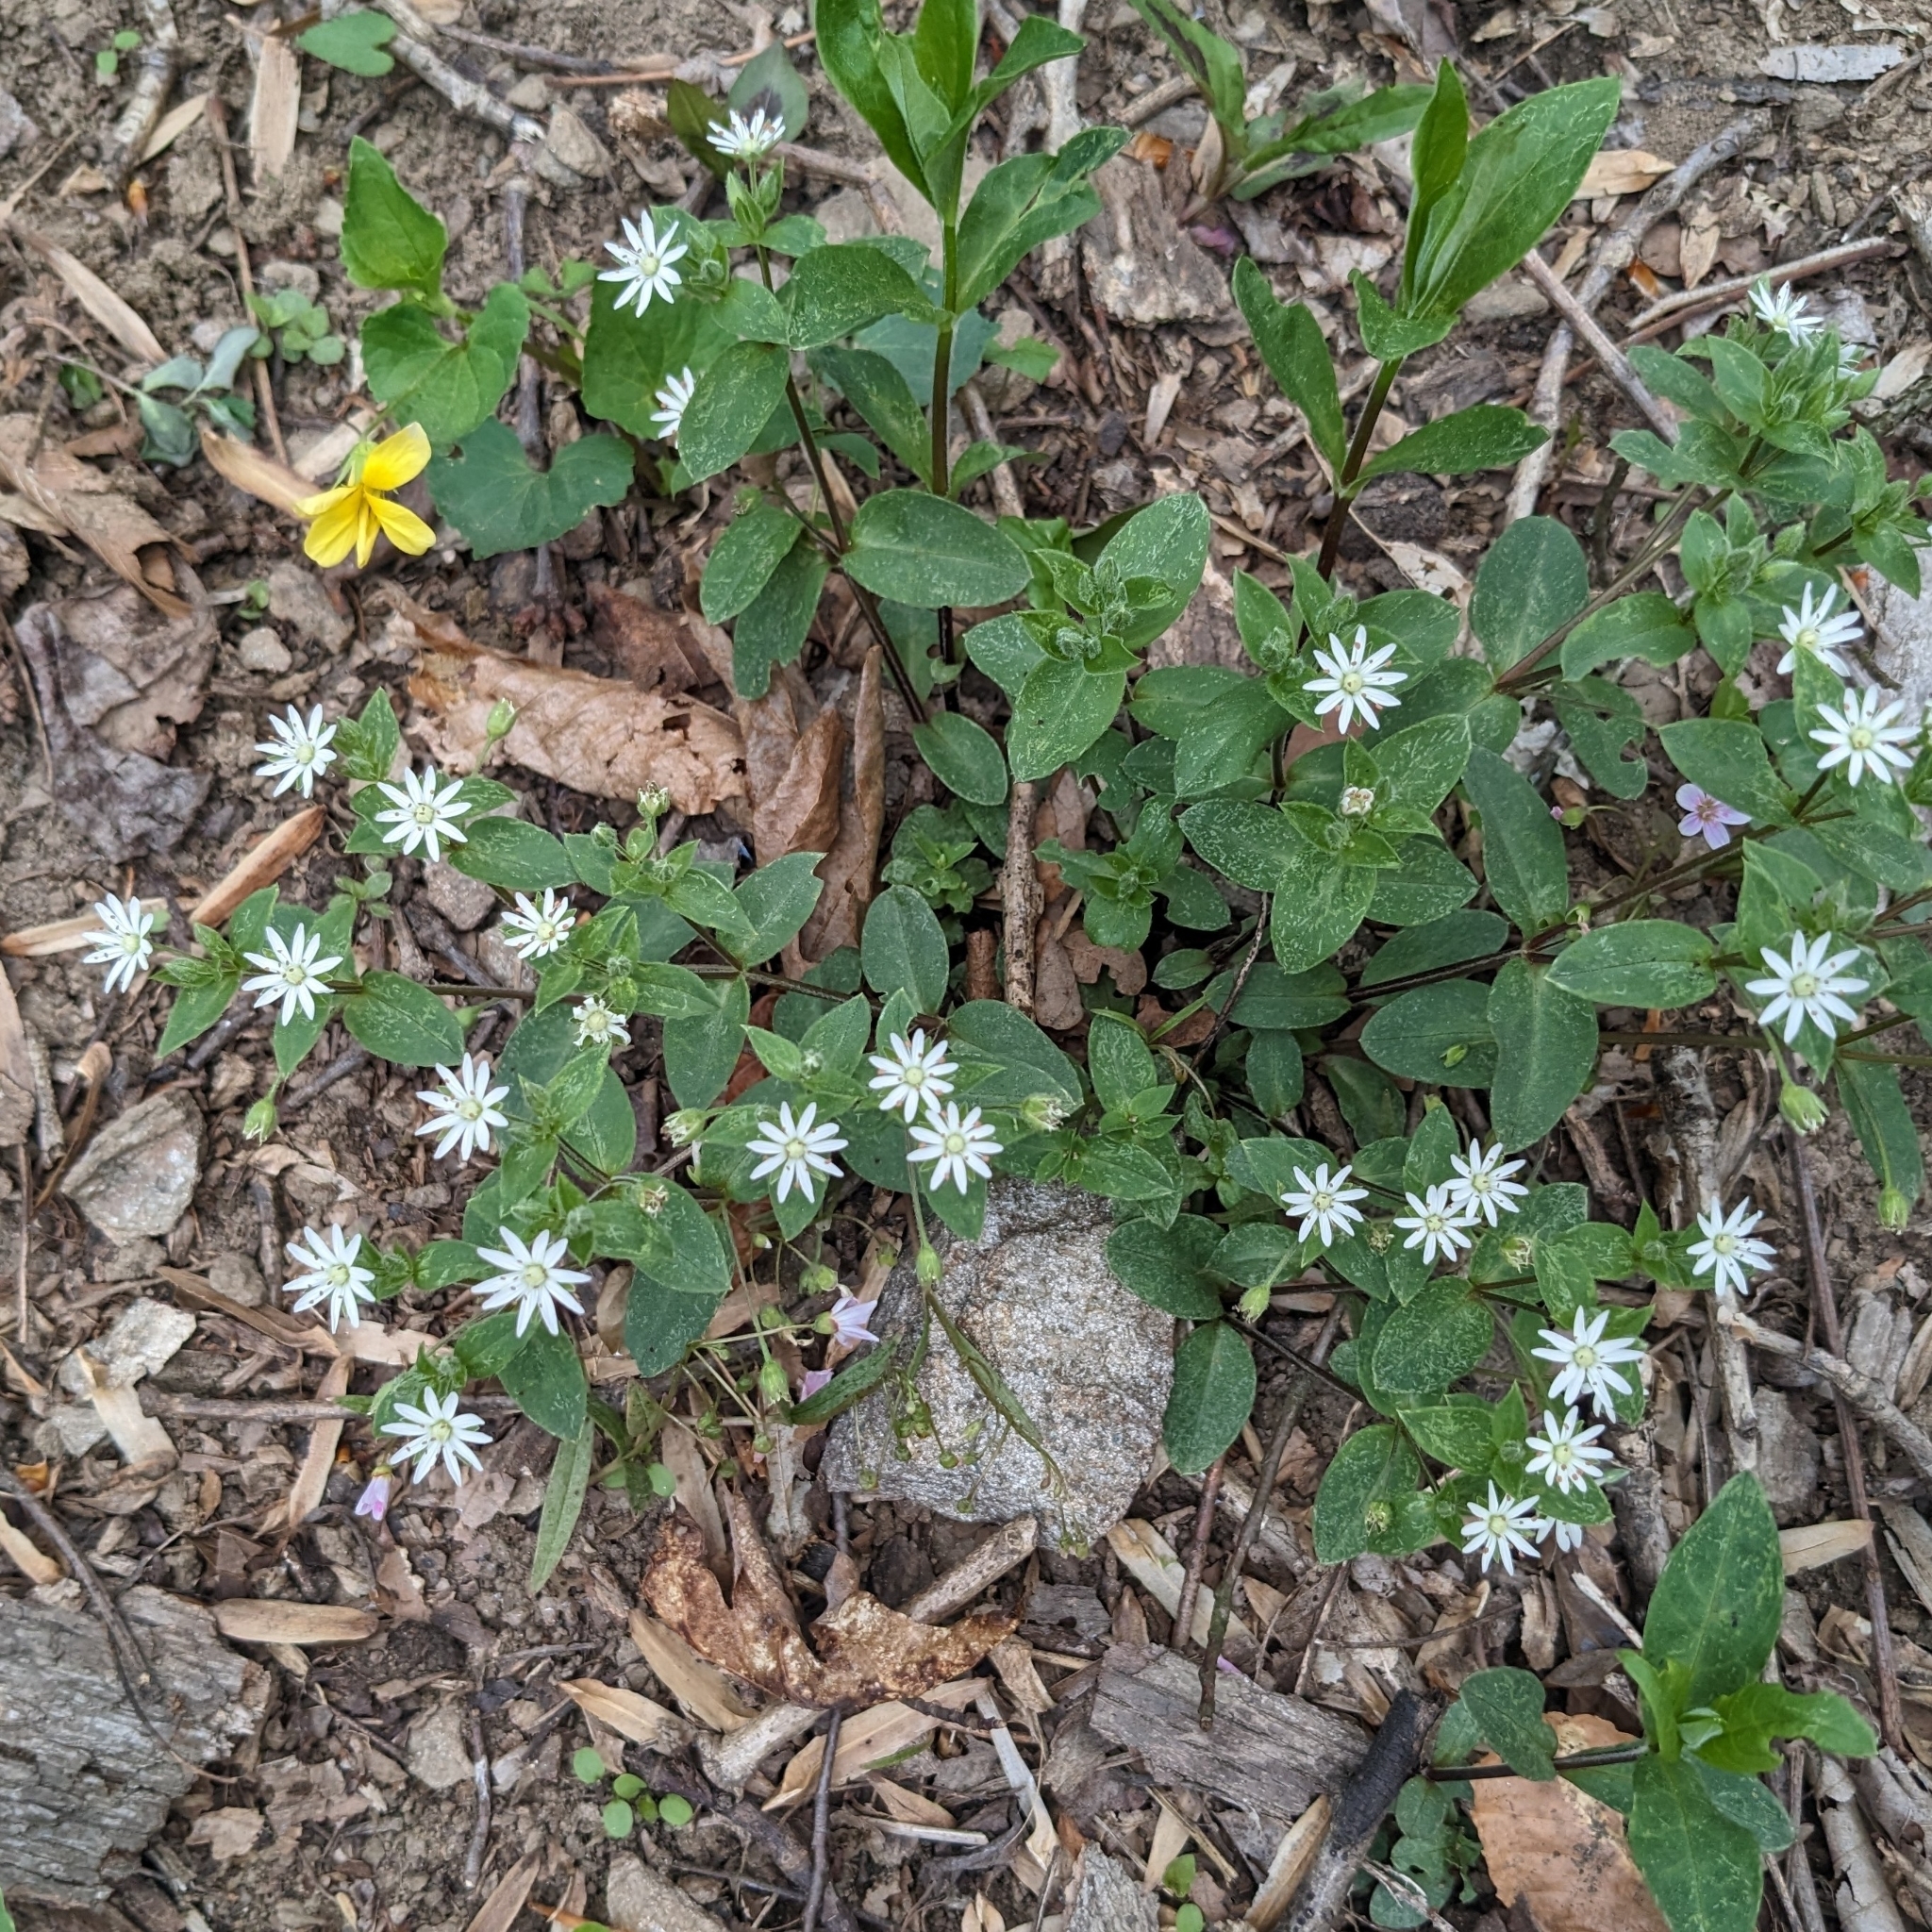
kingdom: Plantae
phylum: Tracheophyta
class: Magnoliopsida
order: Caryophyllales
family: Caryophyllaceae
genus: Stellaria
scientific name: Stellaria pubera
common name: Star chickweed
